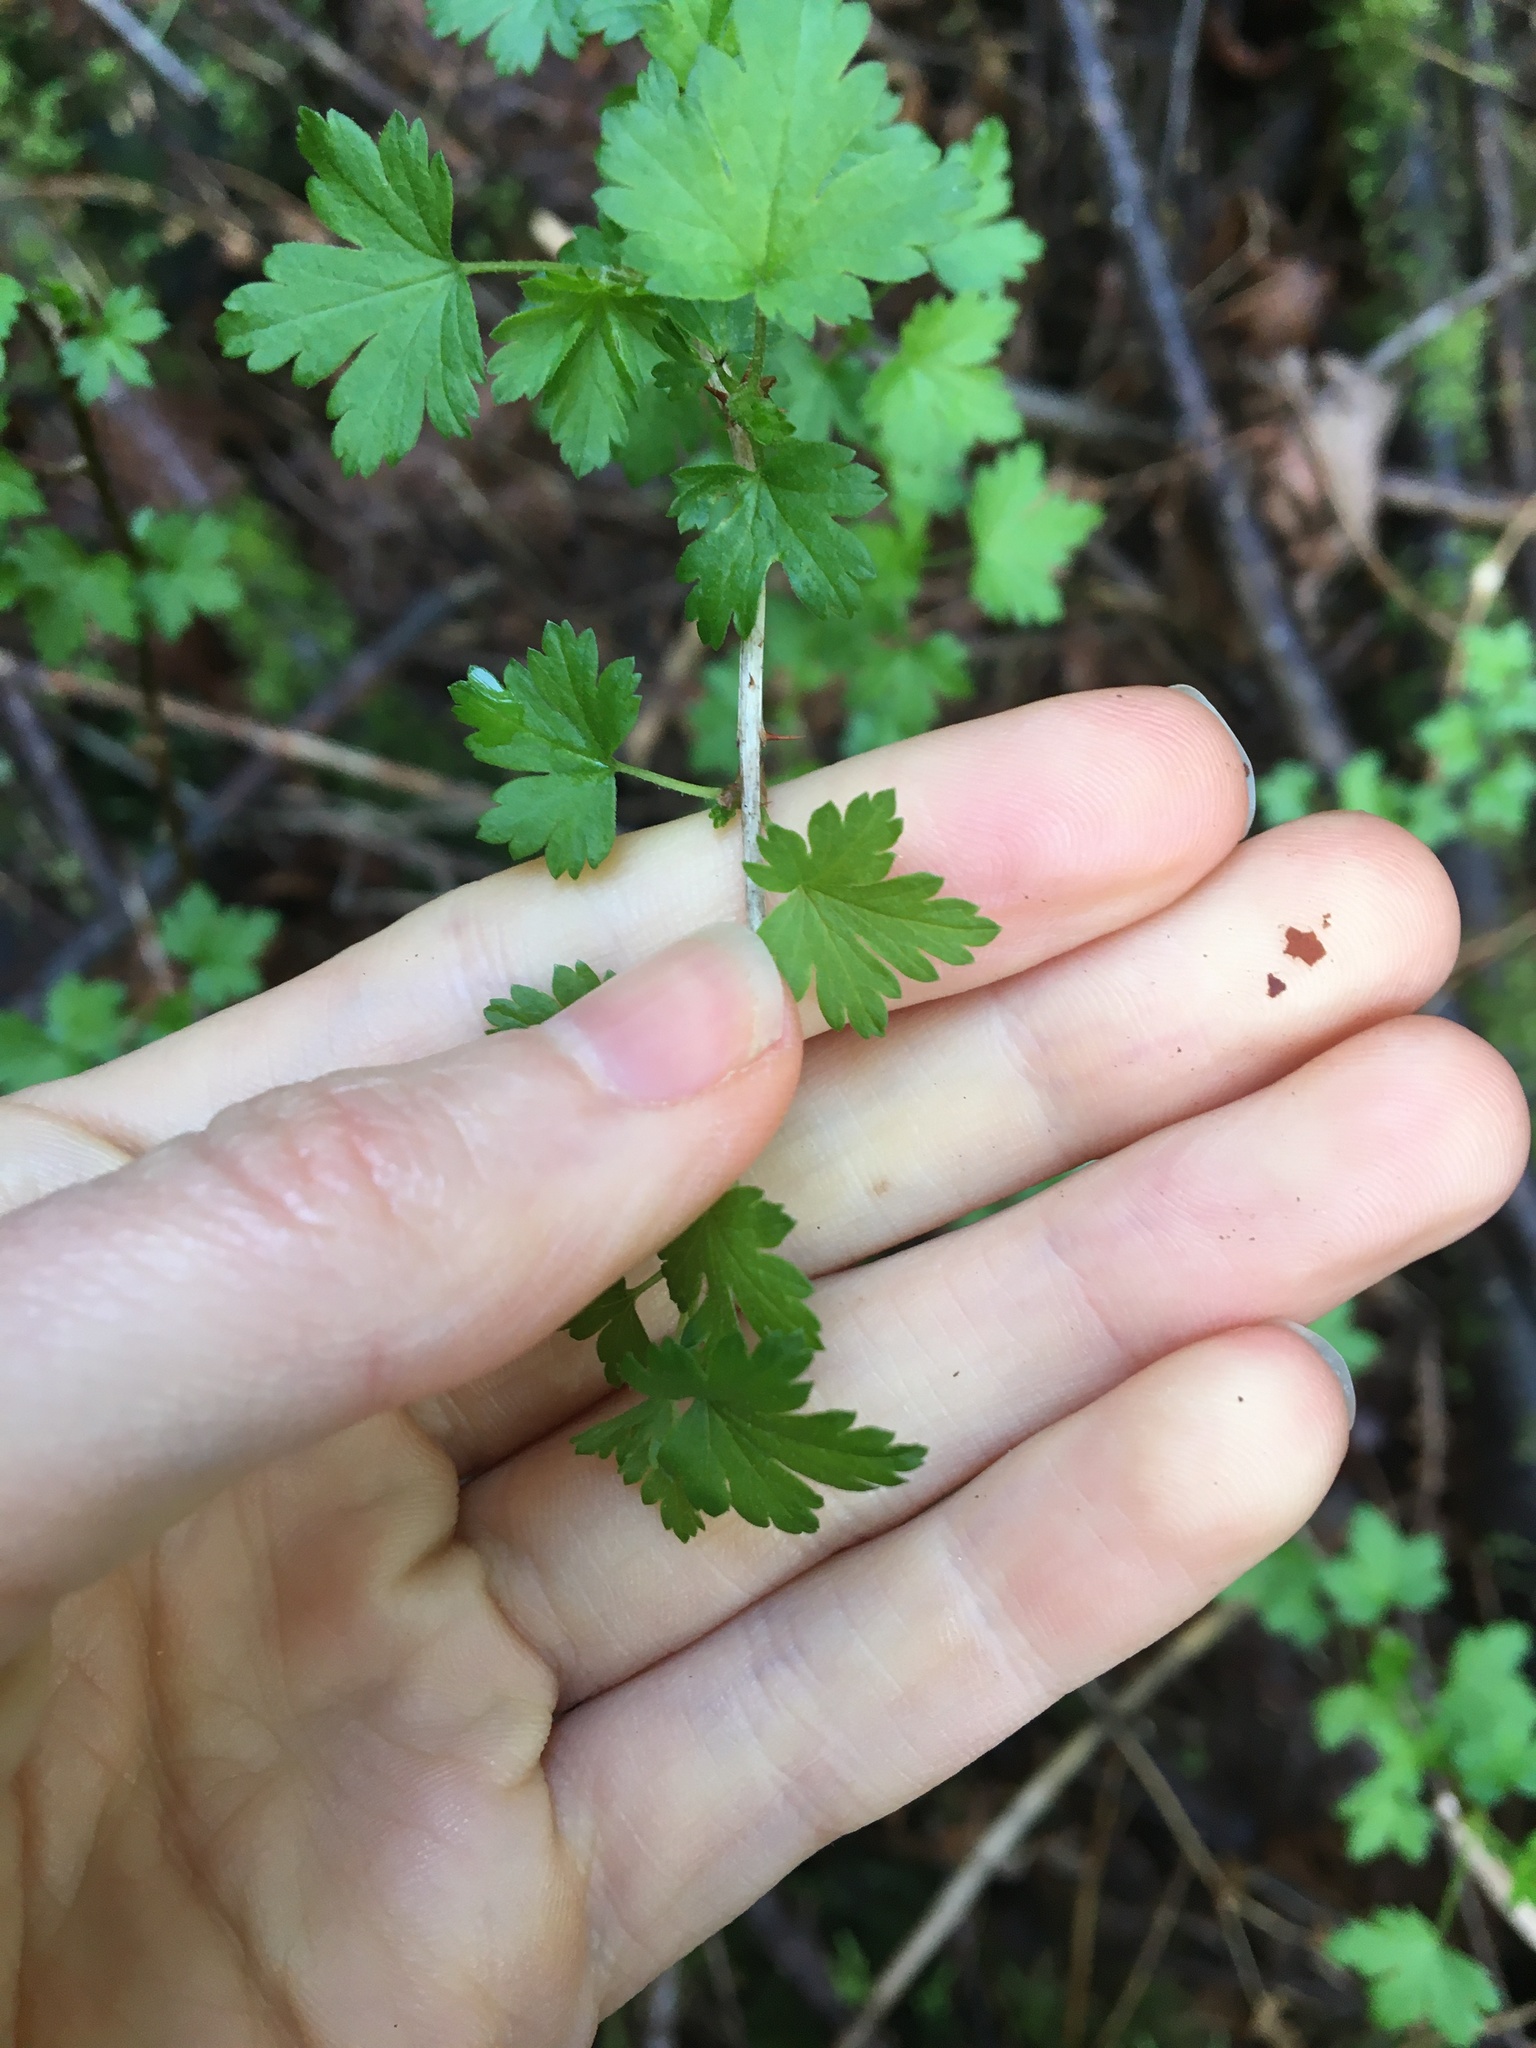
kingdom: Plantae
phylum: Tracheophyta
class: Magnoliopsida
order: Saxifragales
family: Grossulariaceae
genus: Ribes
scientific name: Ribes divaricatum
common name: Wild black gooseberry
